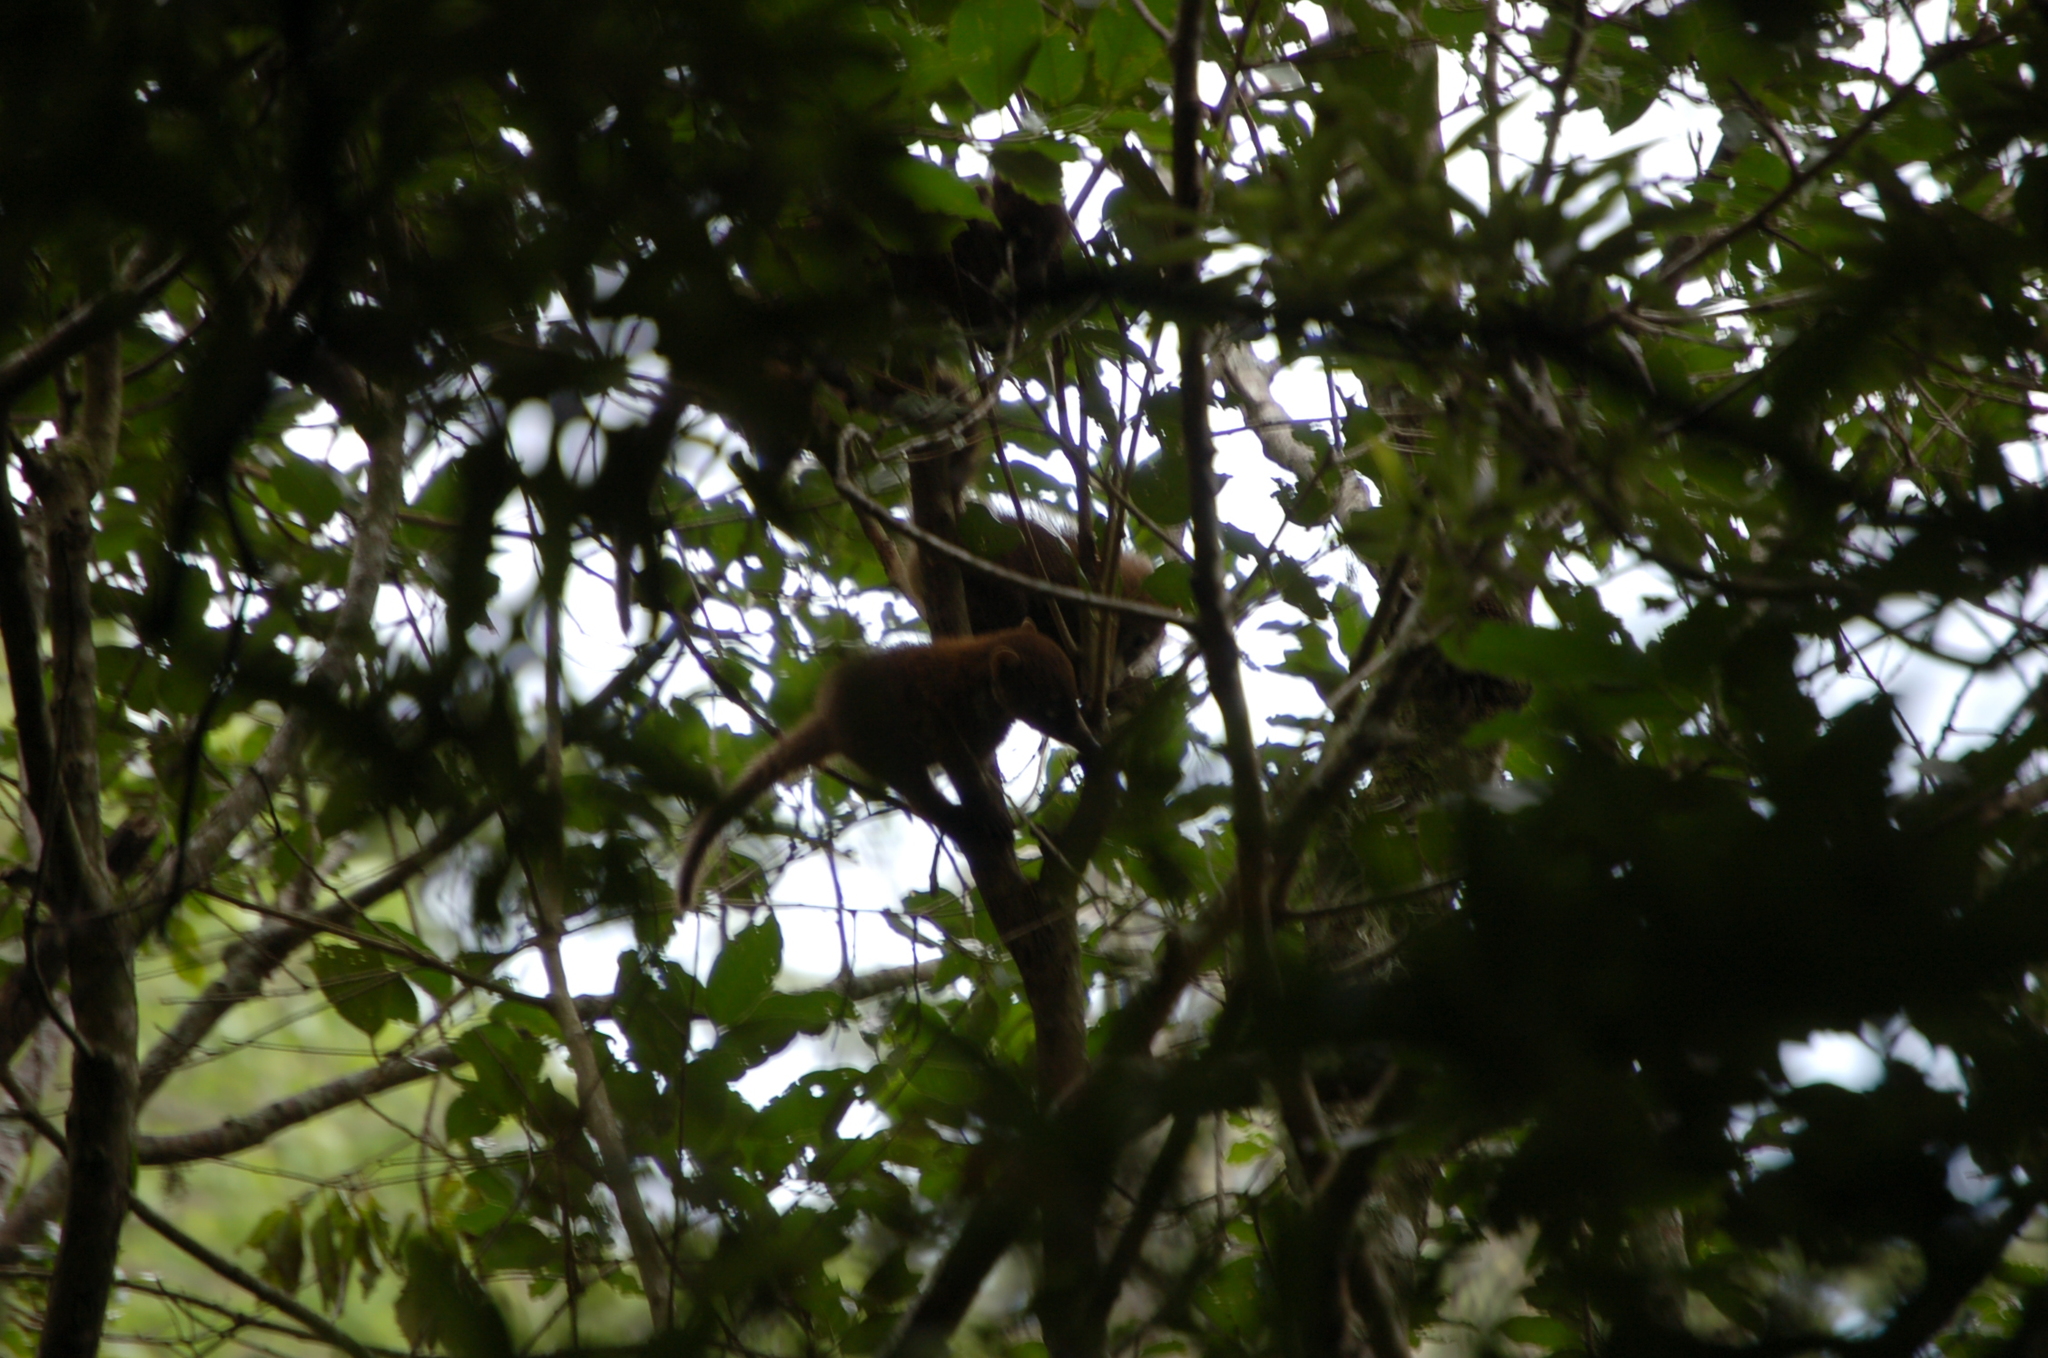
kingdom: Animalia
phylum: Chordata
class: Mammalia
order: Carnivora
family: Procyonidae
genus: Nasua
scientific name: Nasua narica
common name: White-nosed coati
